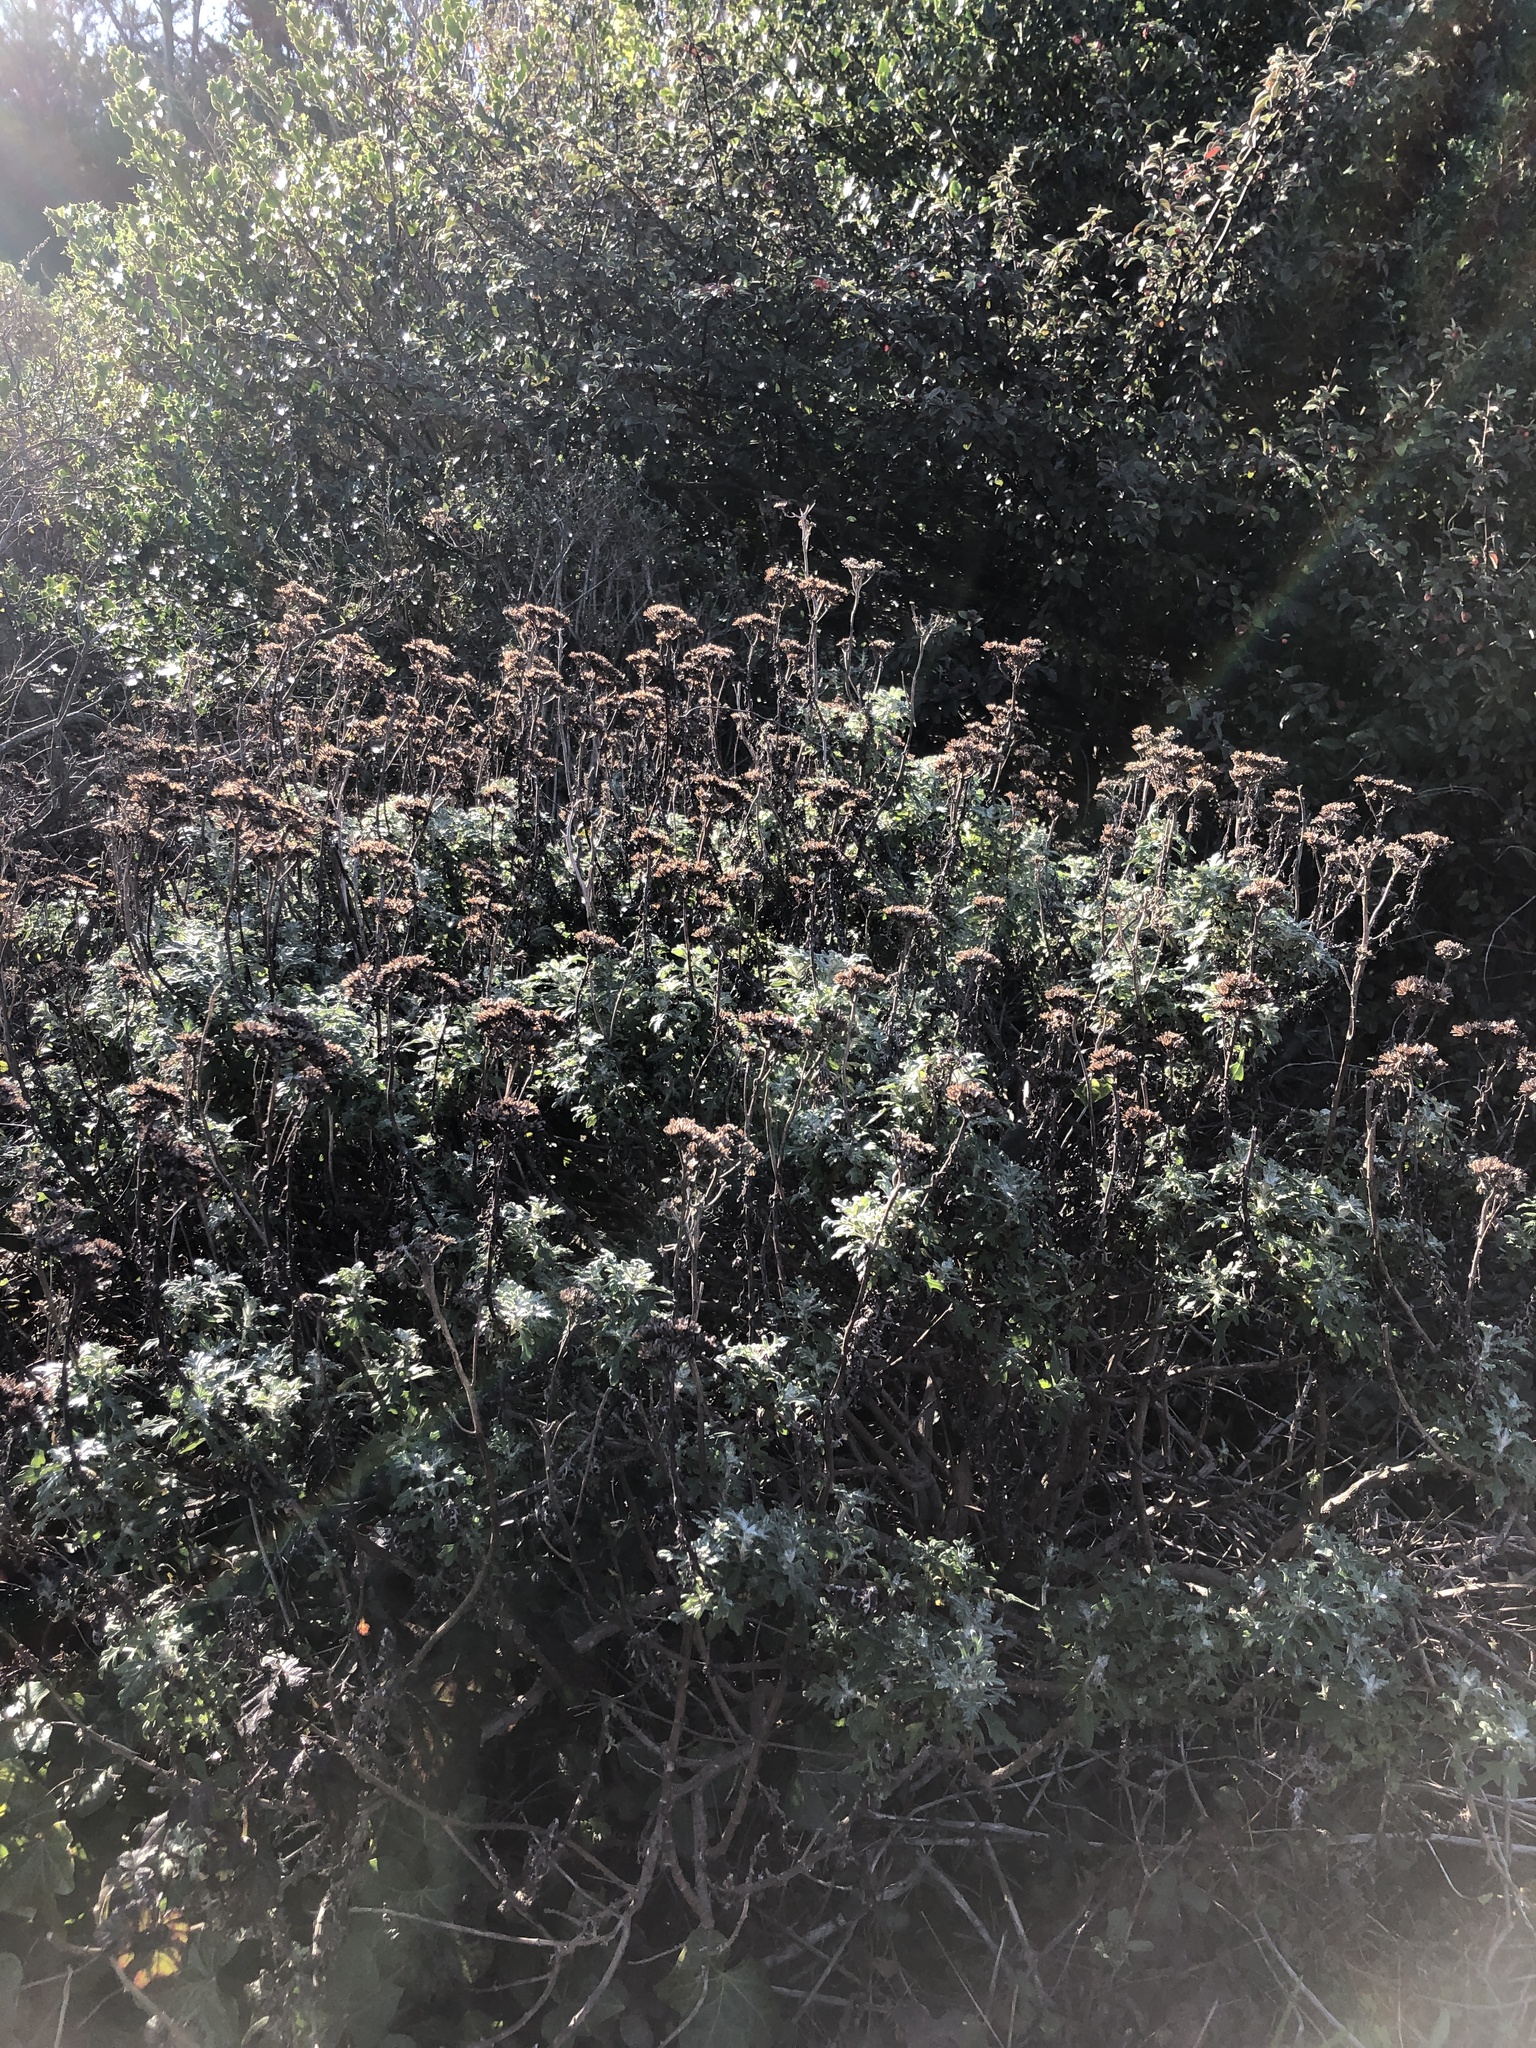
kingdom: Plantae
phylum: Tracheophyta
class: Magnoliopsida
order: Asterales
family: Asteraceae
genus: Eriophyllum
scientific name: Eriophyllum staechadifolium
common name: Lizardtail
